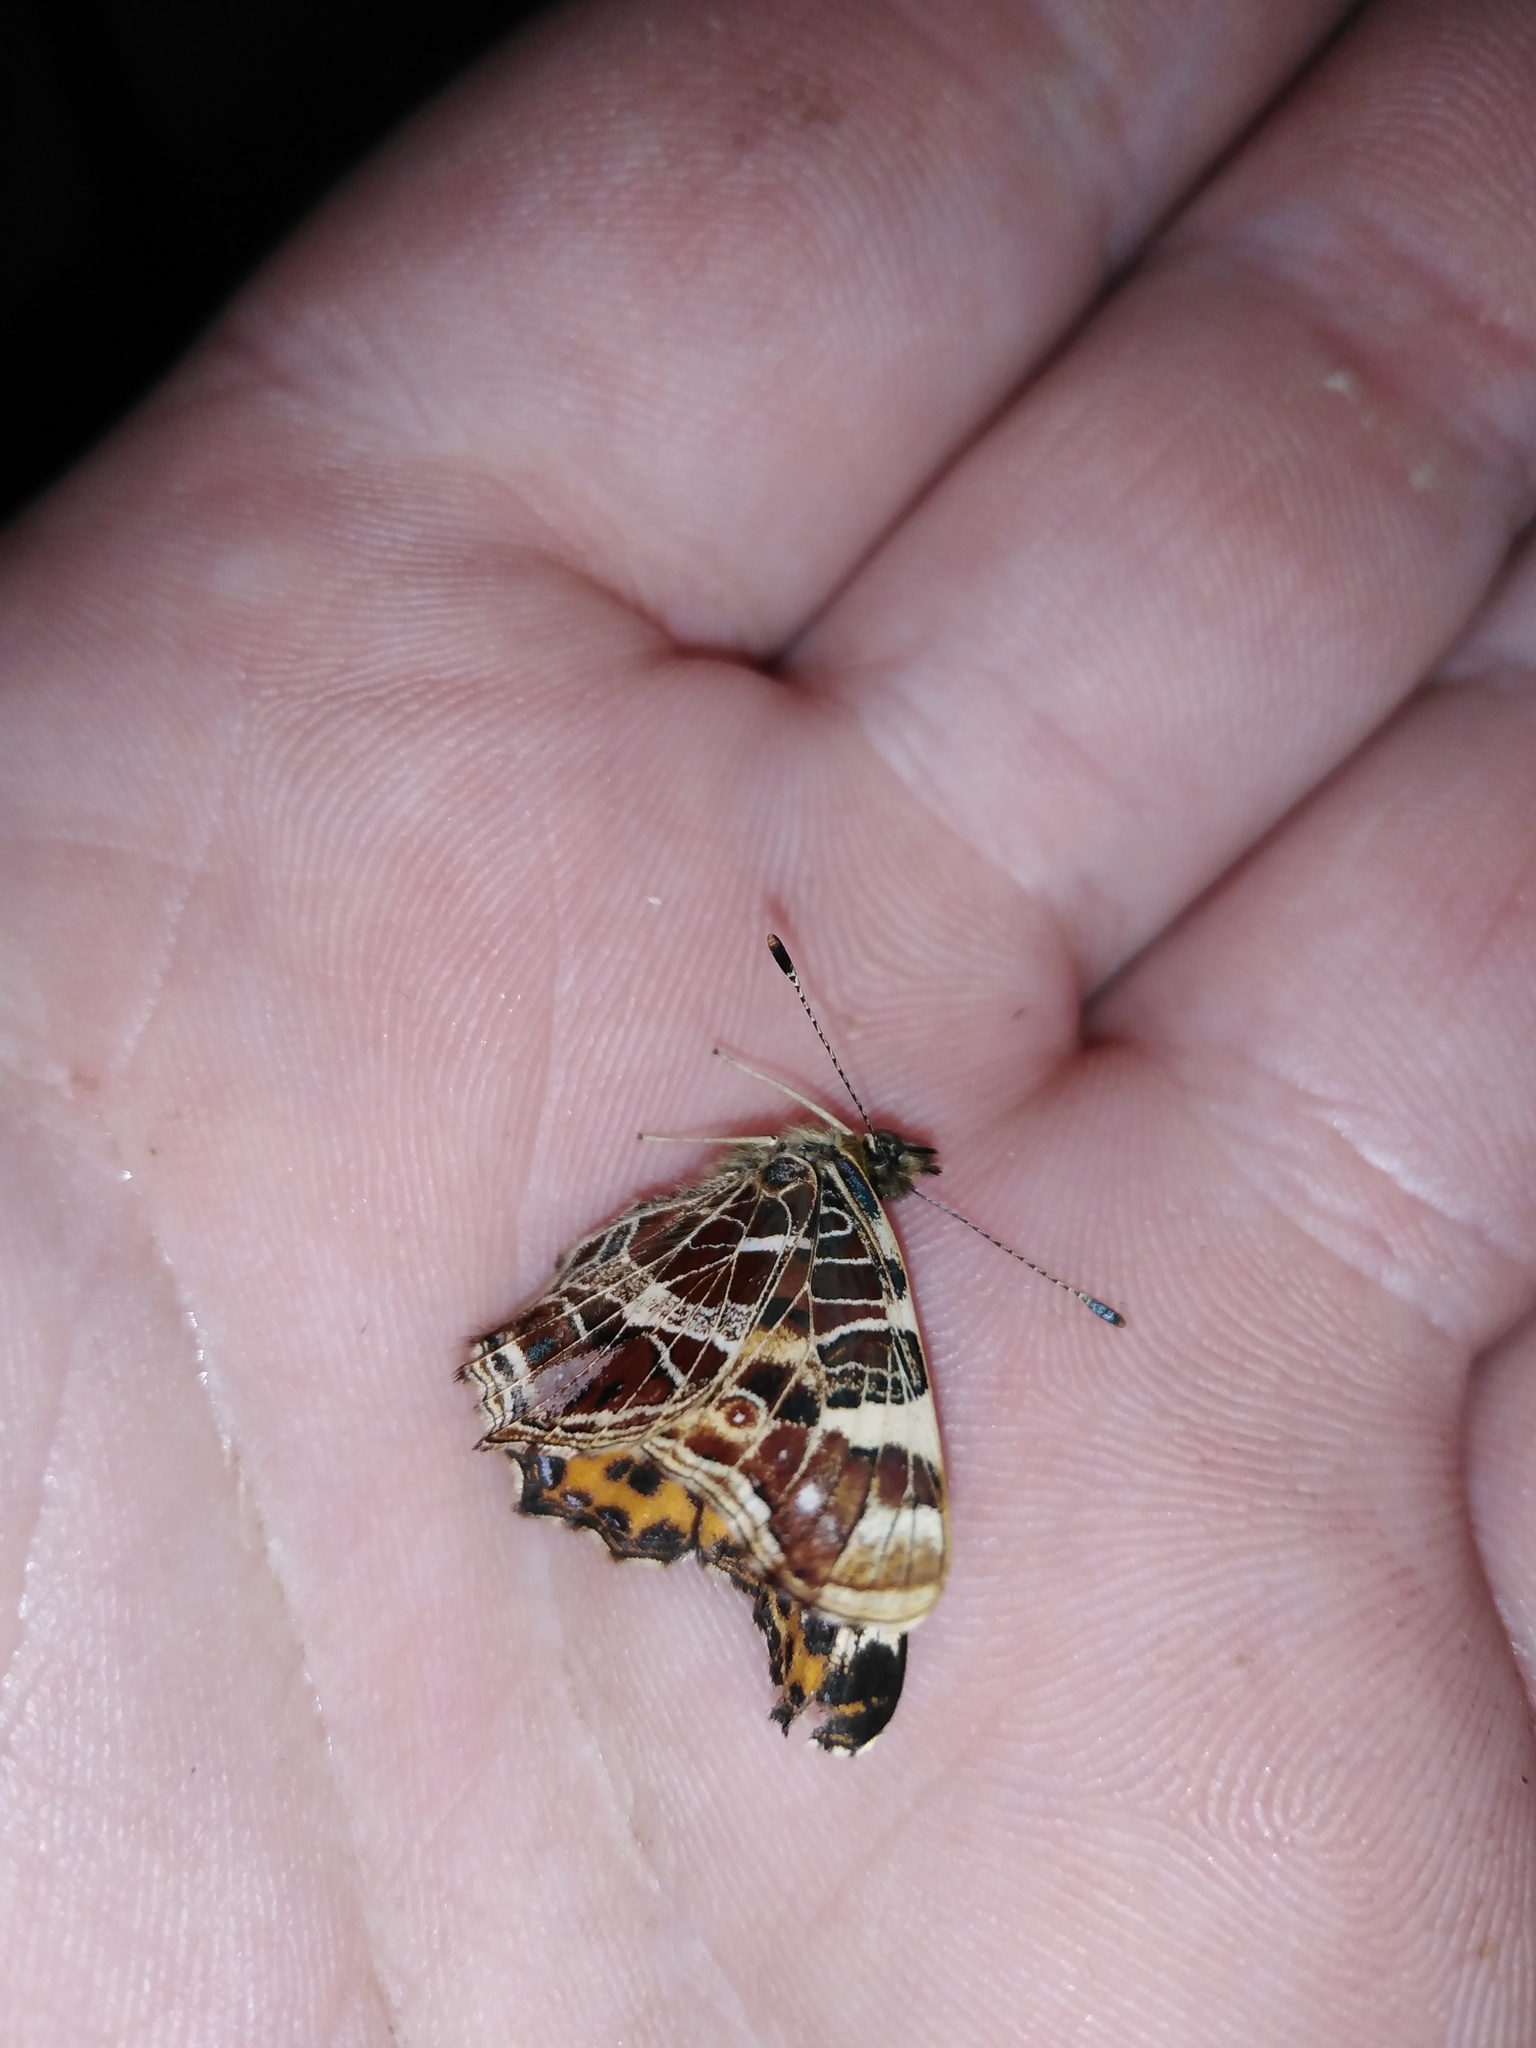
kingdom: Animalia
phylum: Arthropoda
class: Insecta
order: Lepidoptera
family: Nymphalidae
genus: Araschnia
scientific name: Araschnia levana
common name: Map butterfly
